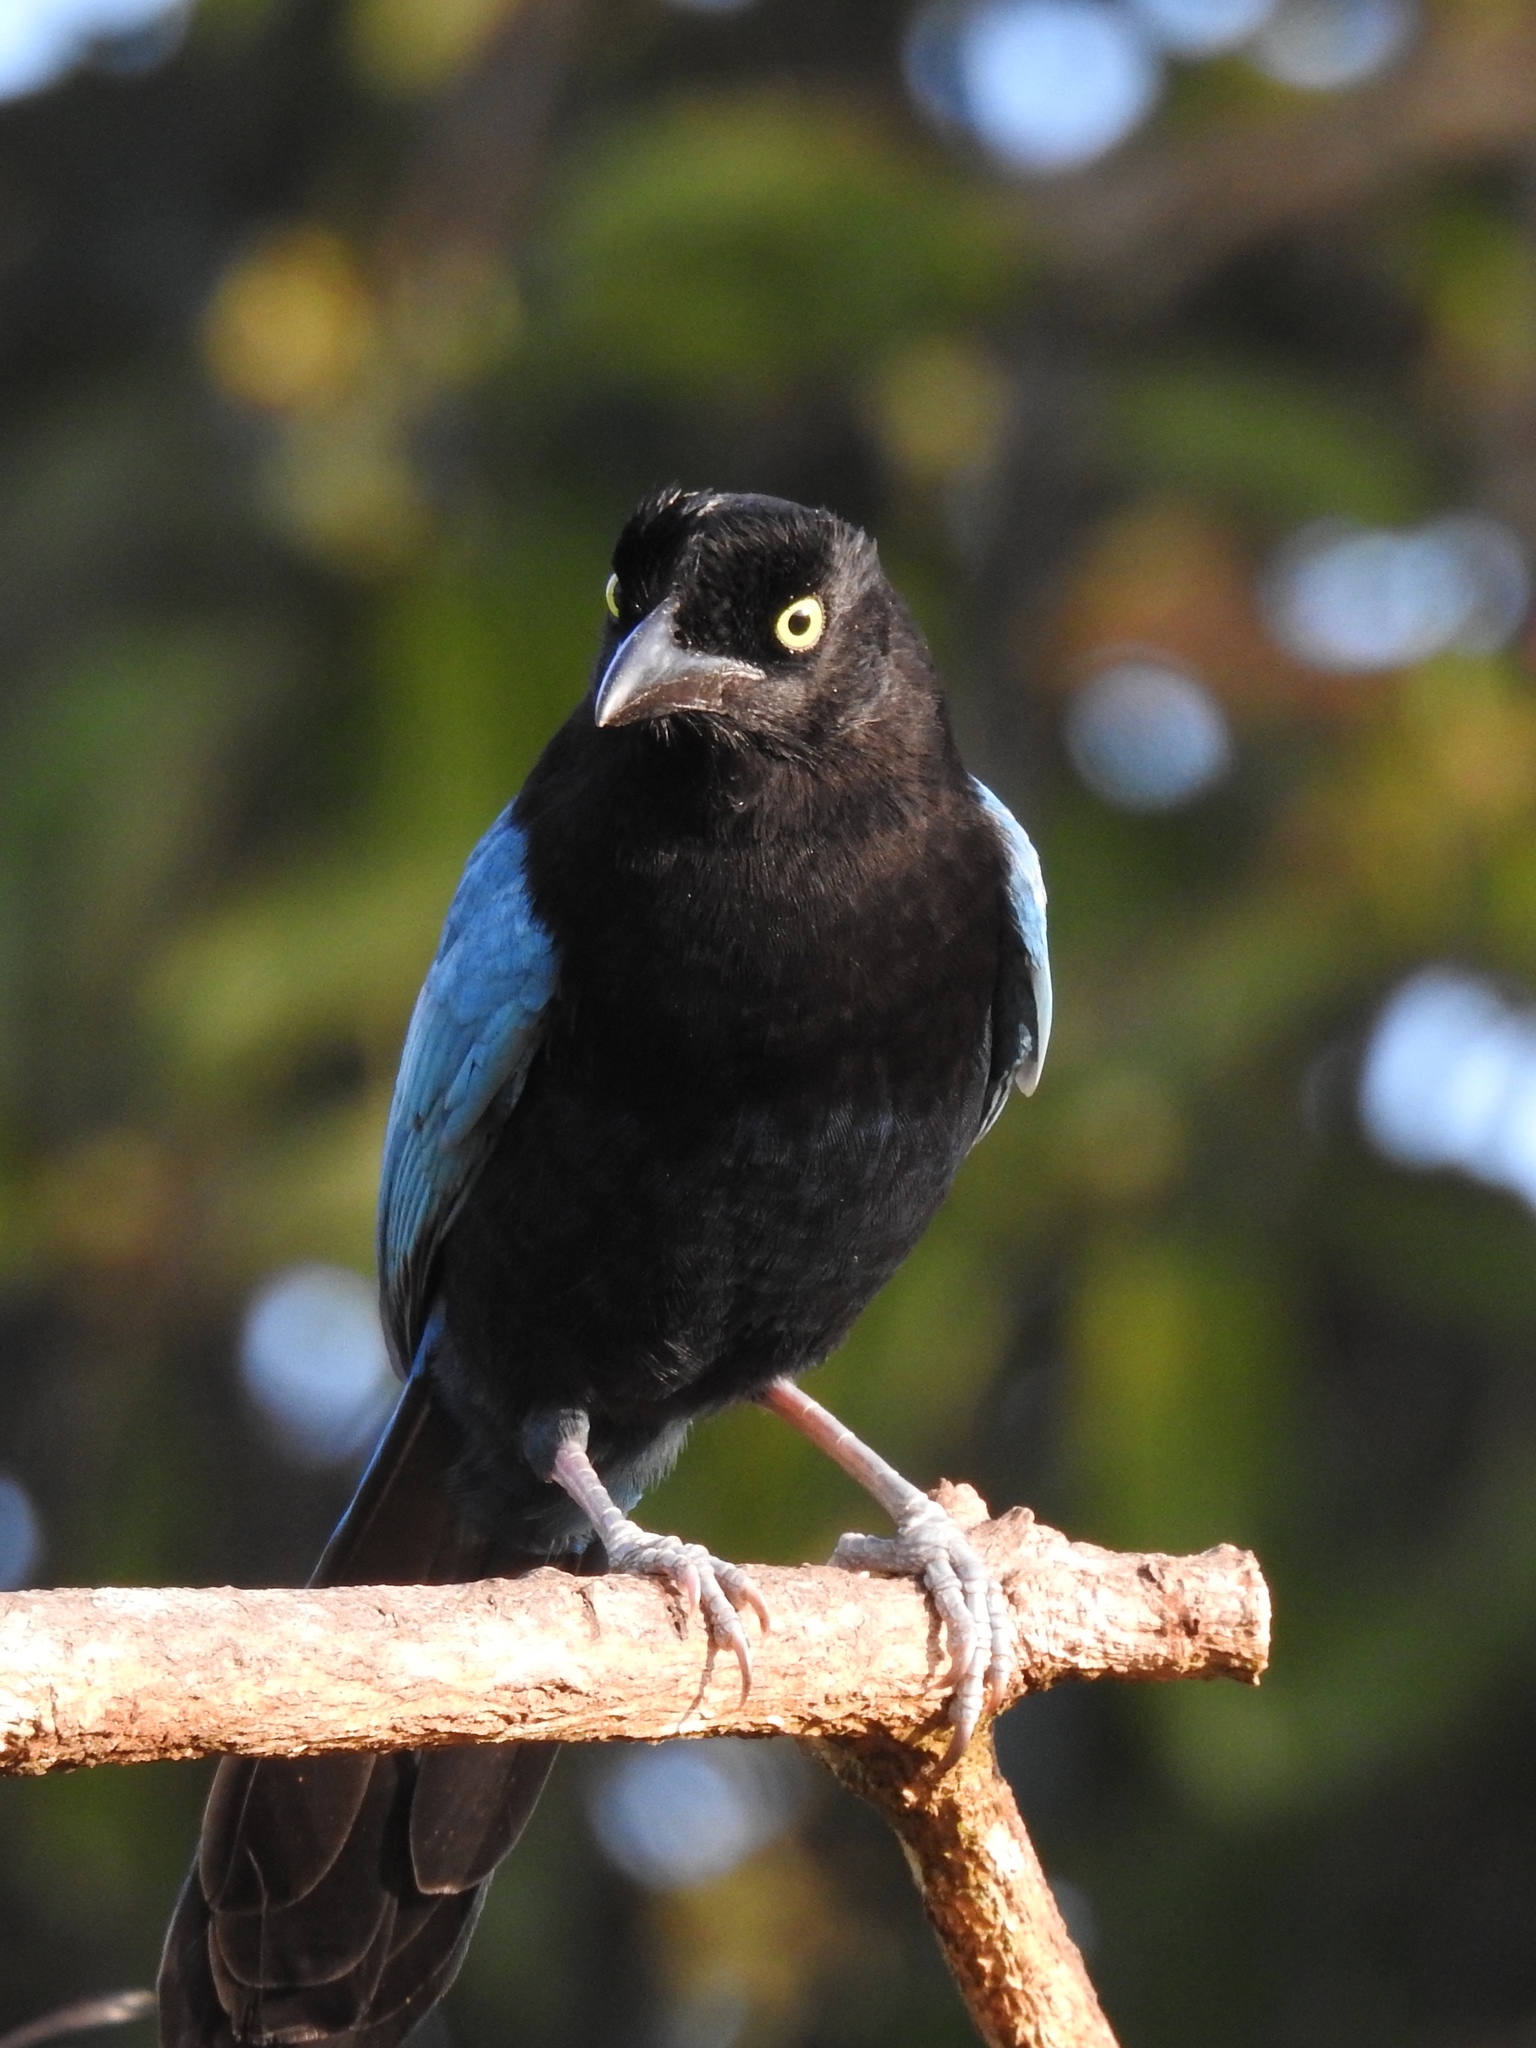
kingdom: Animalia
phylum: Chordata
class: Aves
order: Passeriformes
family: Corvidae
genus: Cyanocorax
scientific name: Cyanocorax sanblasianus
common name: San blas jay
